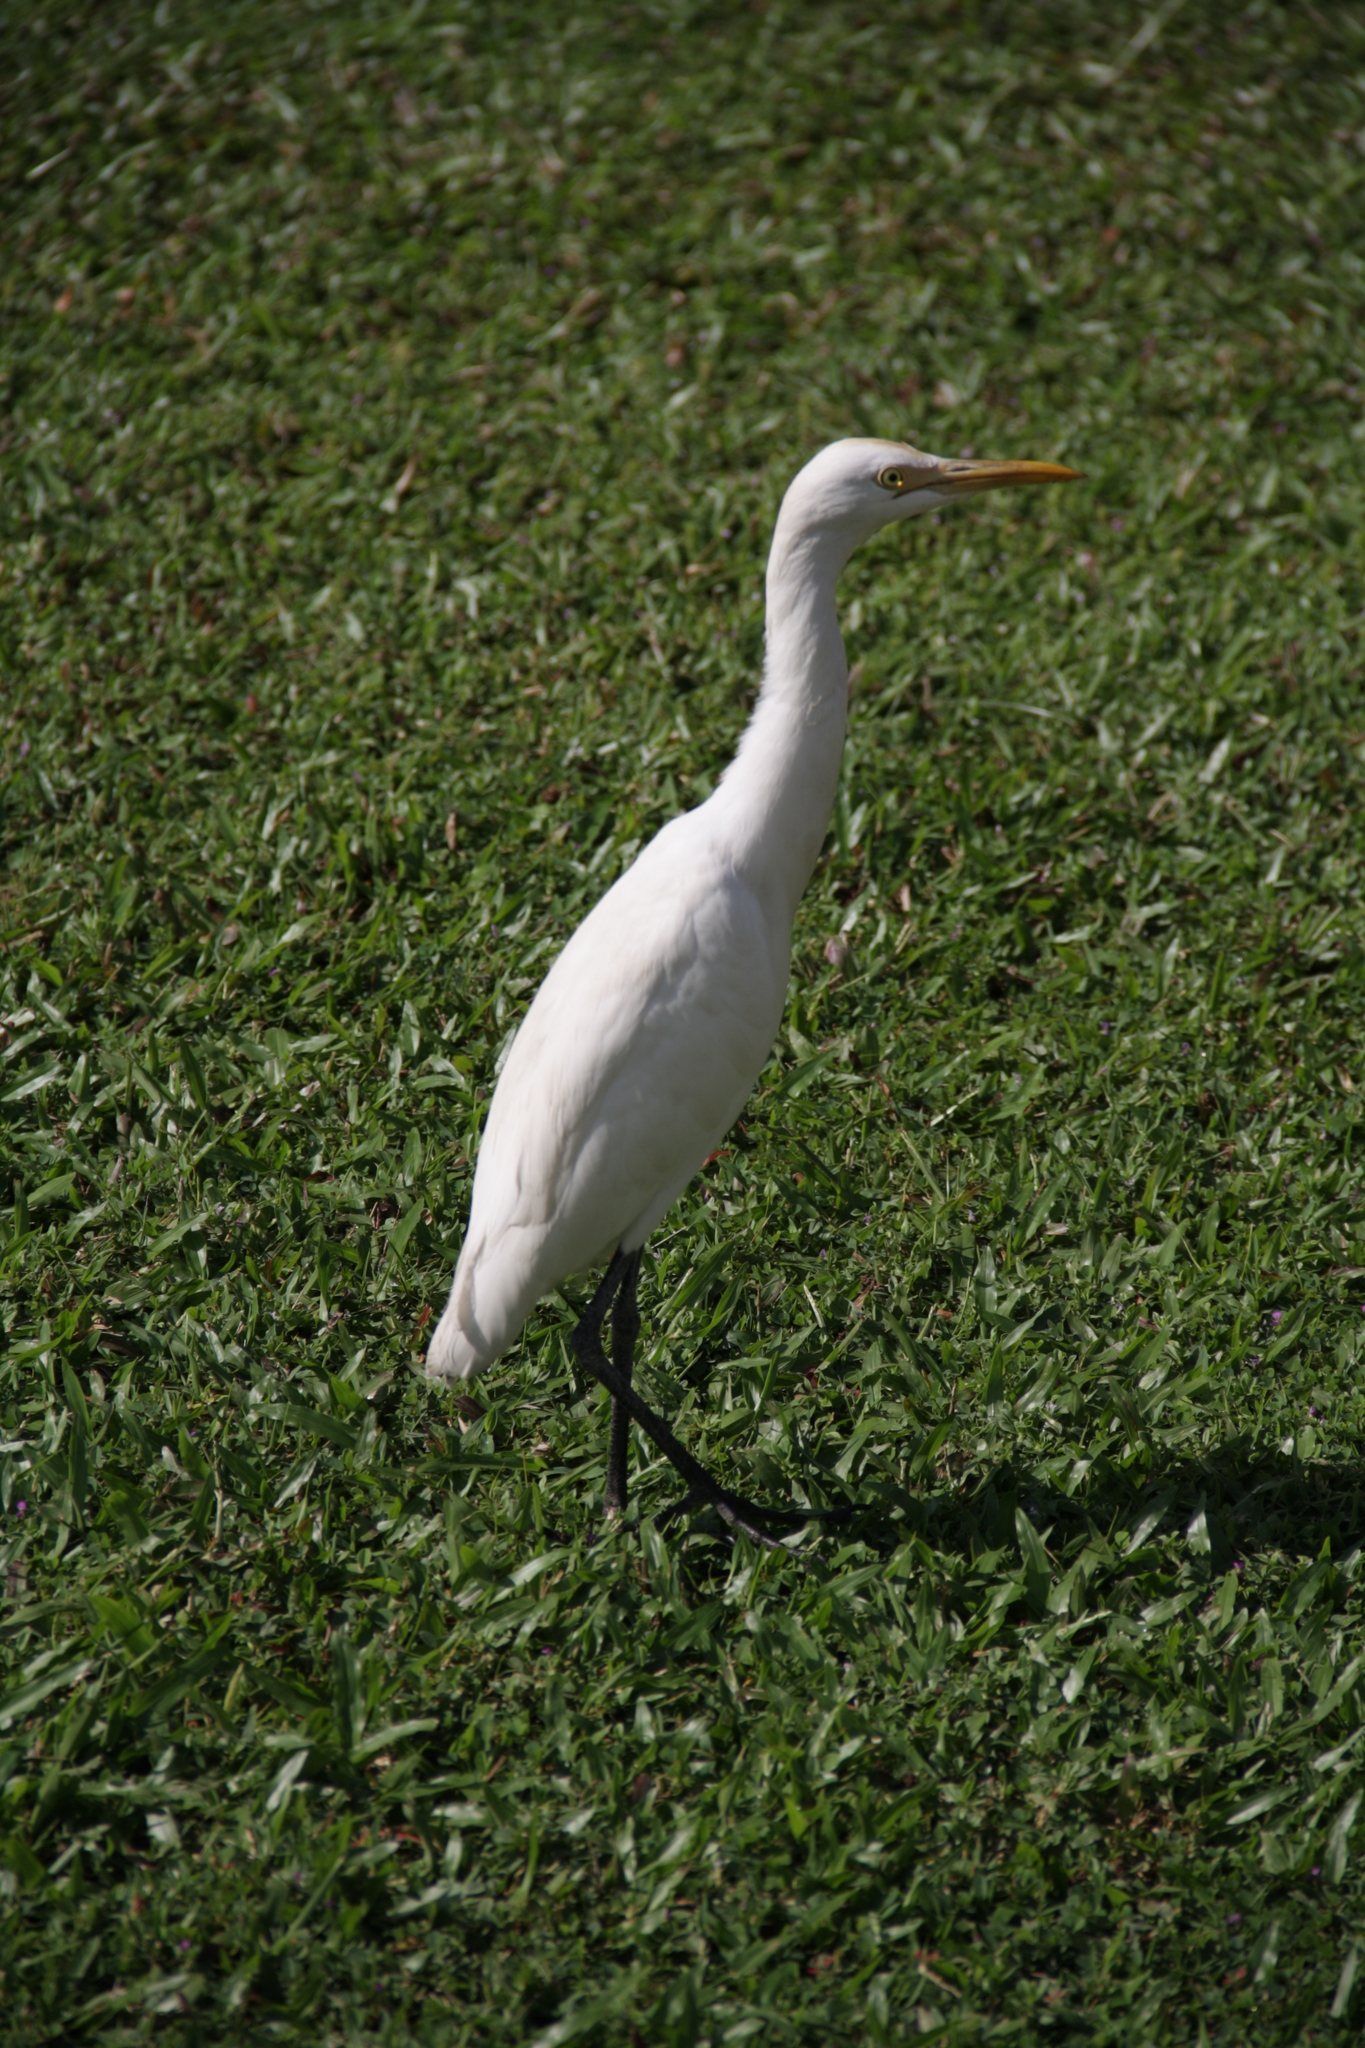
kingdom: Animalia
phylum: Chordata
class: Aves
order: Pelecaniformes
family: Ardeidae
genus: Bubulcus
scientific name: Bubulcus coromandus
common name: Eastern cattle egret
